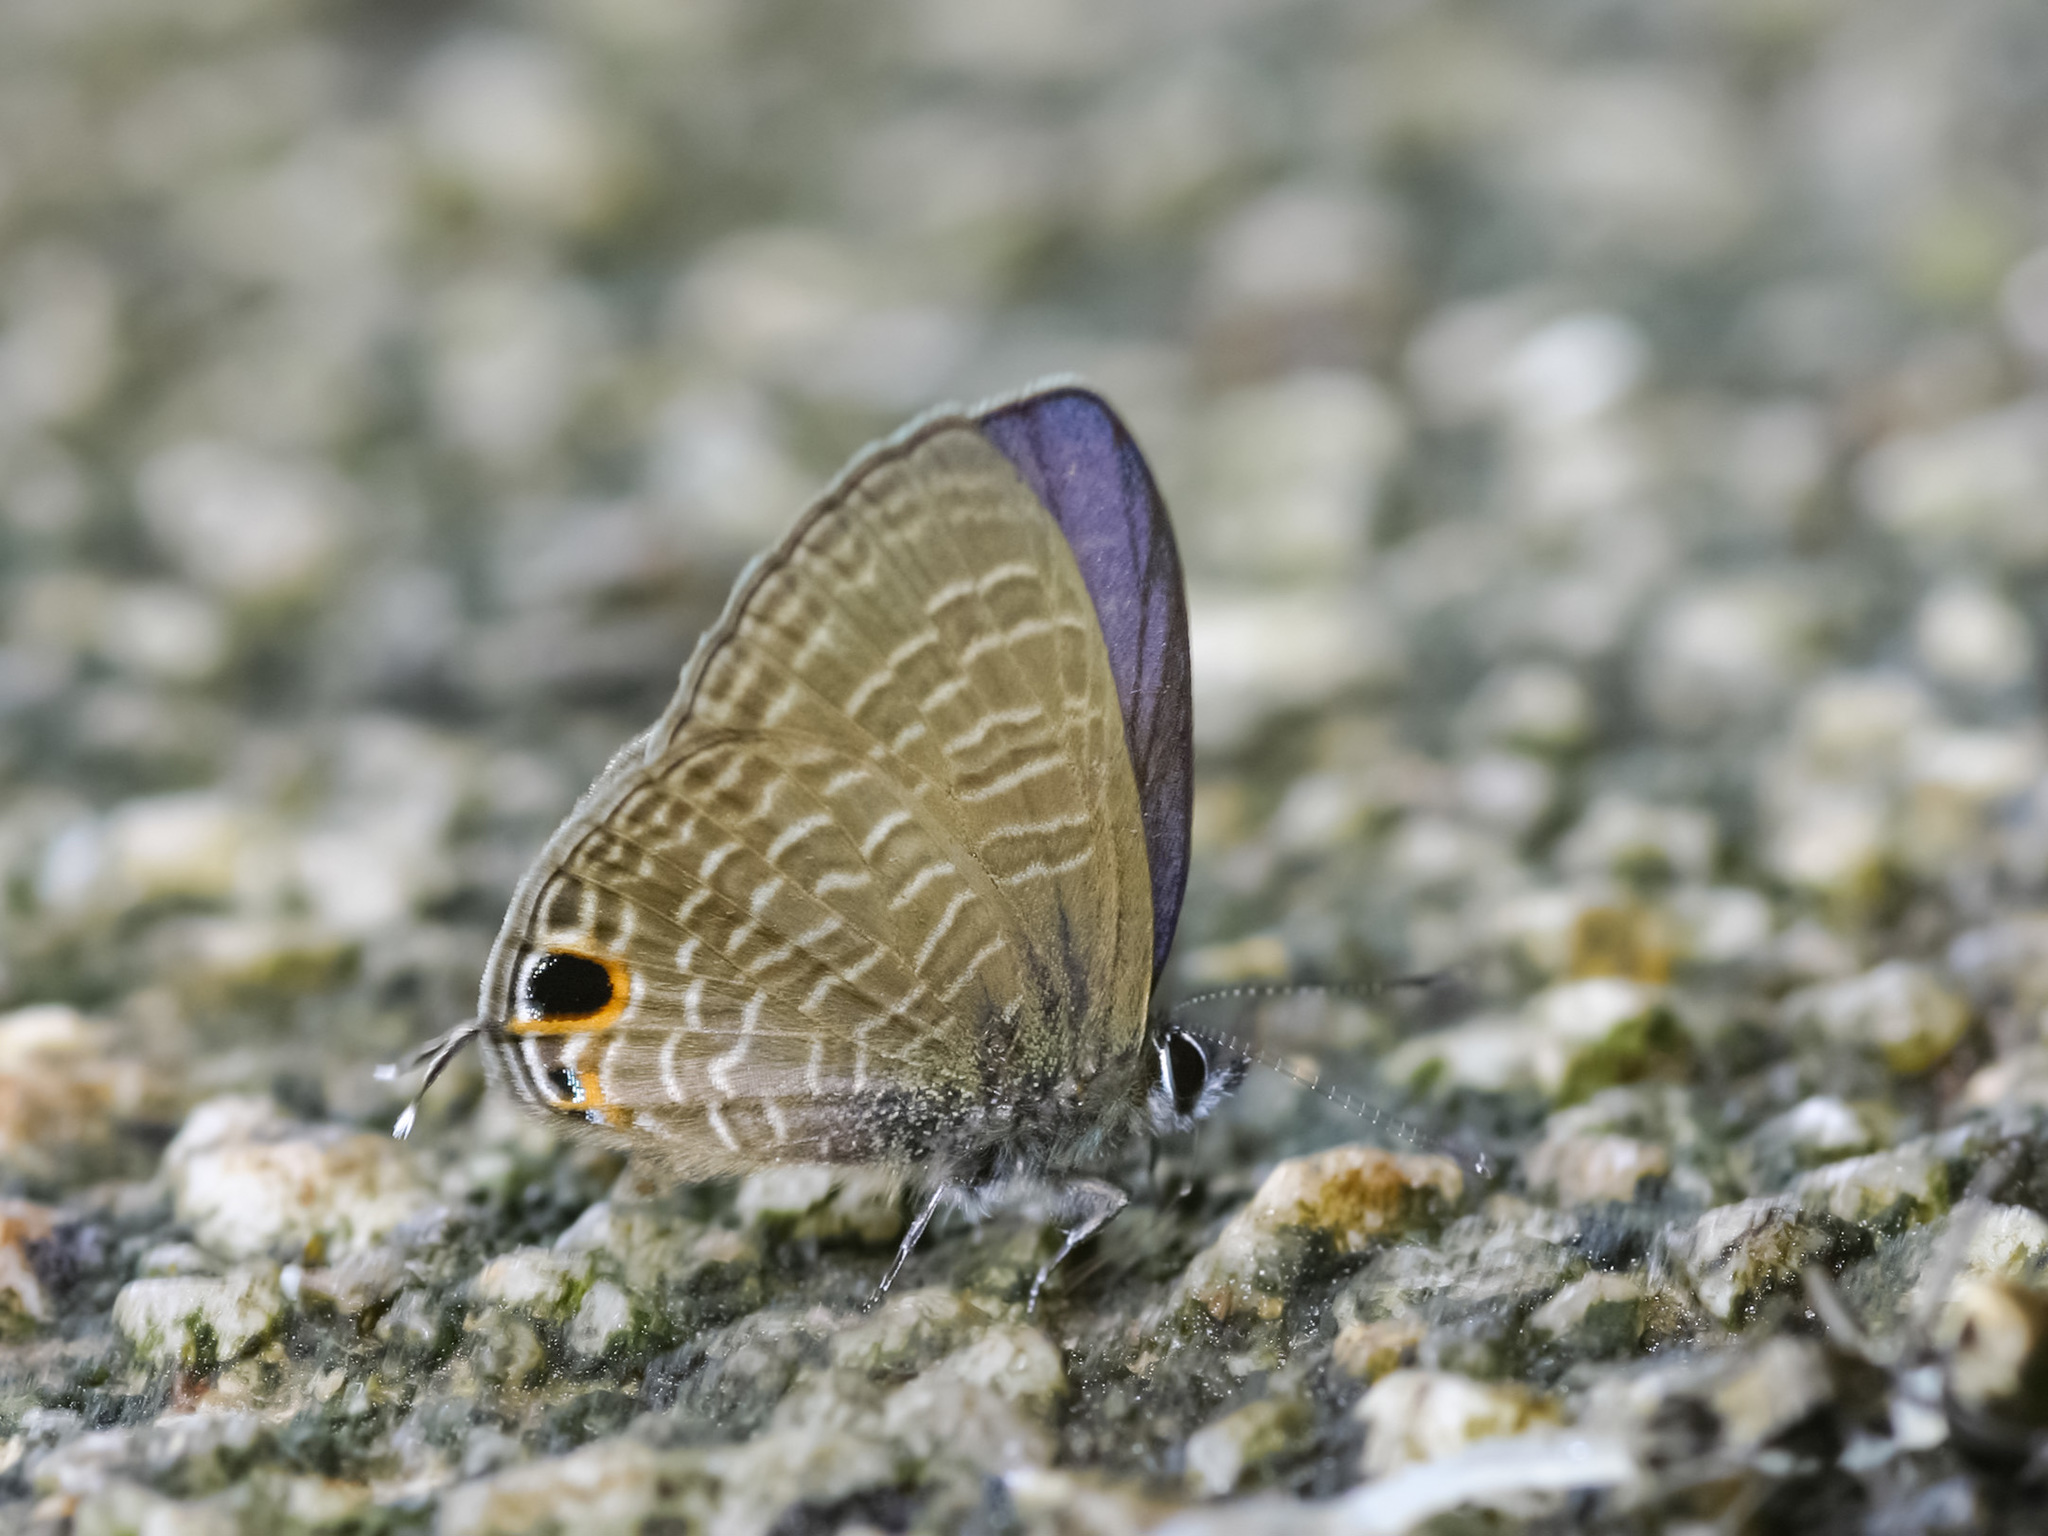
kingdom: Animalia
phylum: Arthropoda
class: Insecta
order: Lepidoptera
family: Lycaenidae
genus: Nacaduba
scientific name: Nacaduba beroe
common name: Opaque sixline blue
